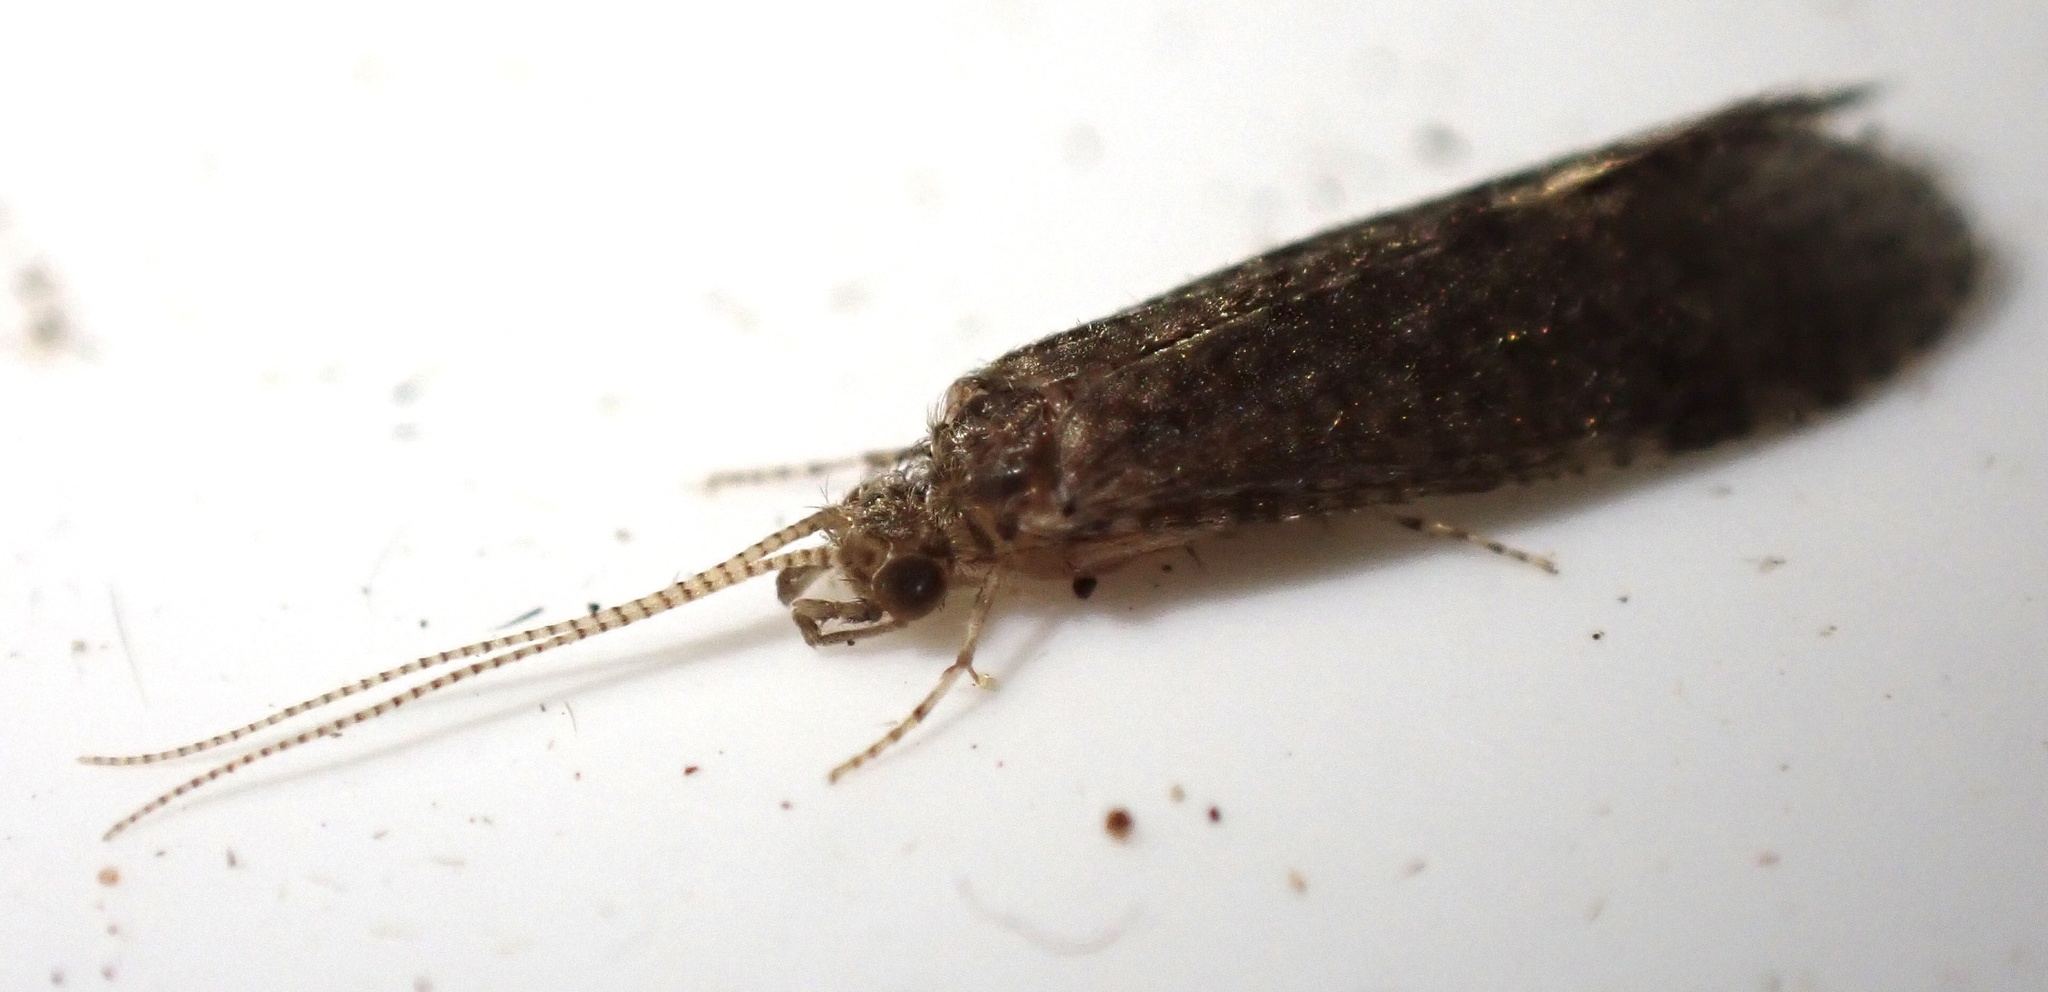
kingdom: Animalia
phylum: Arthropoda
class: Insecta
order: Trichoptera
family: Ecnomidae
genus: Ecnomus
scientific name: Ecnomus tenellus
